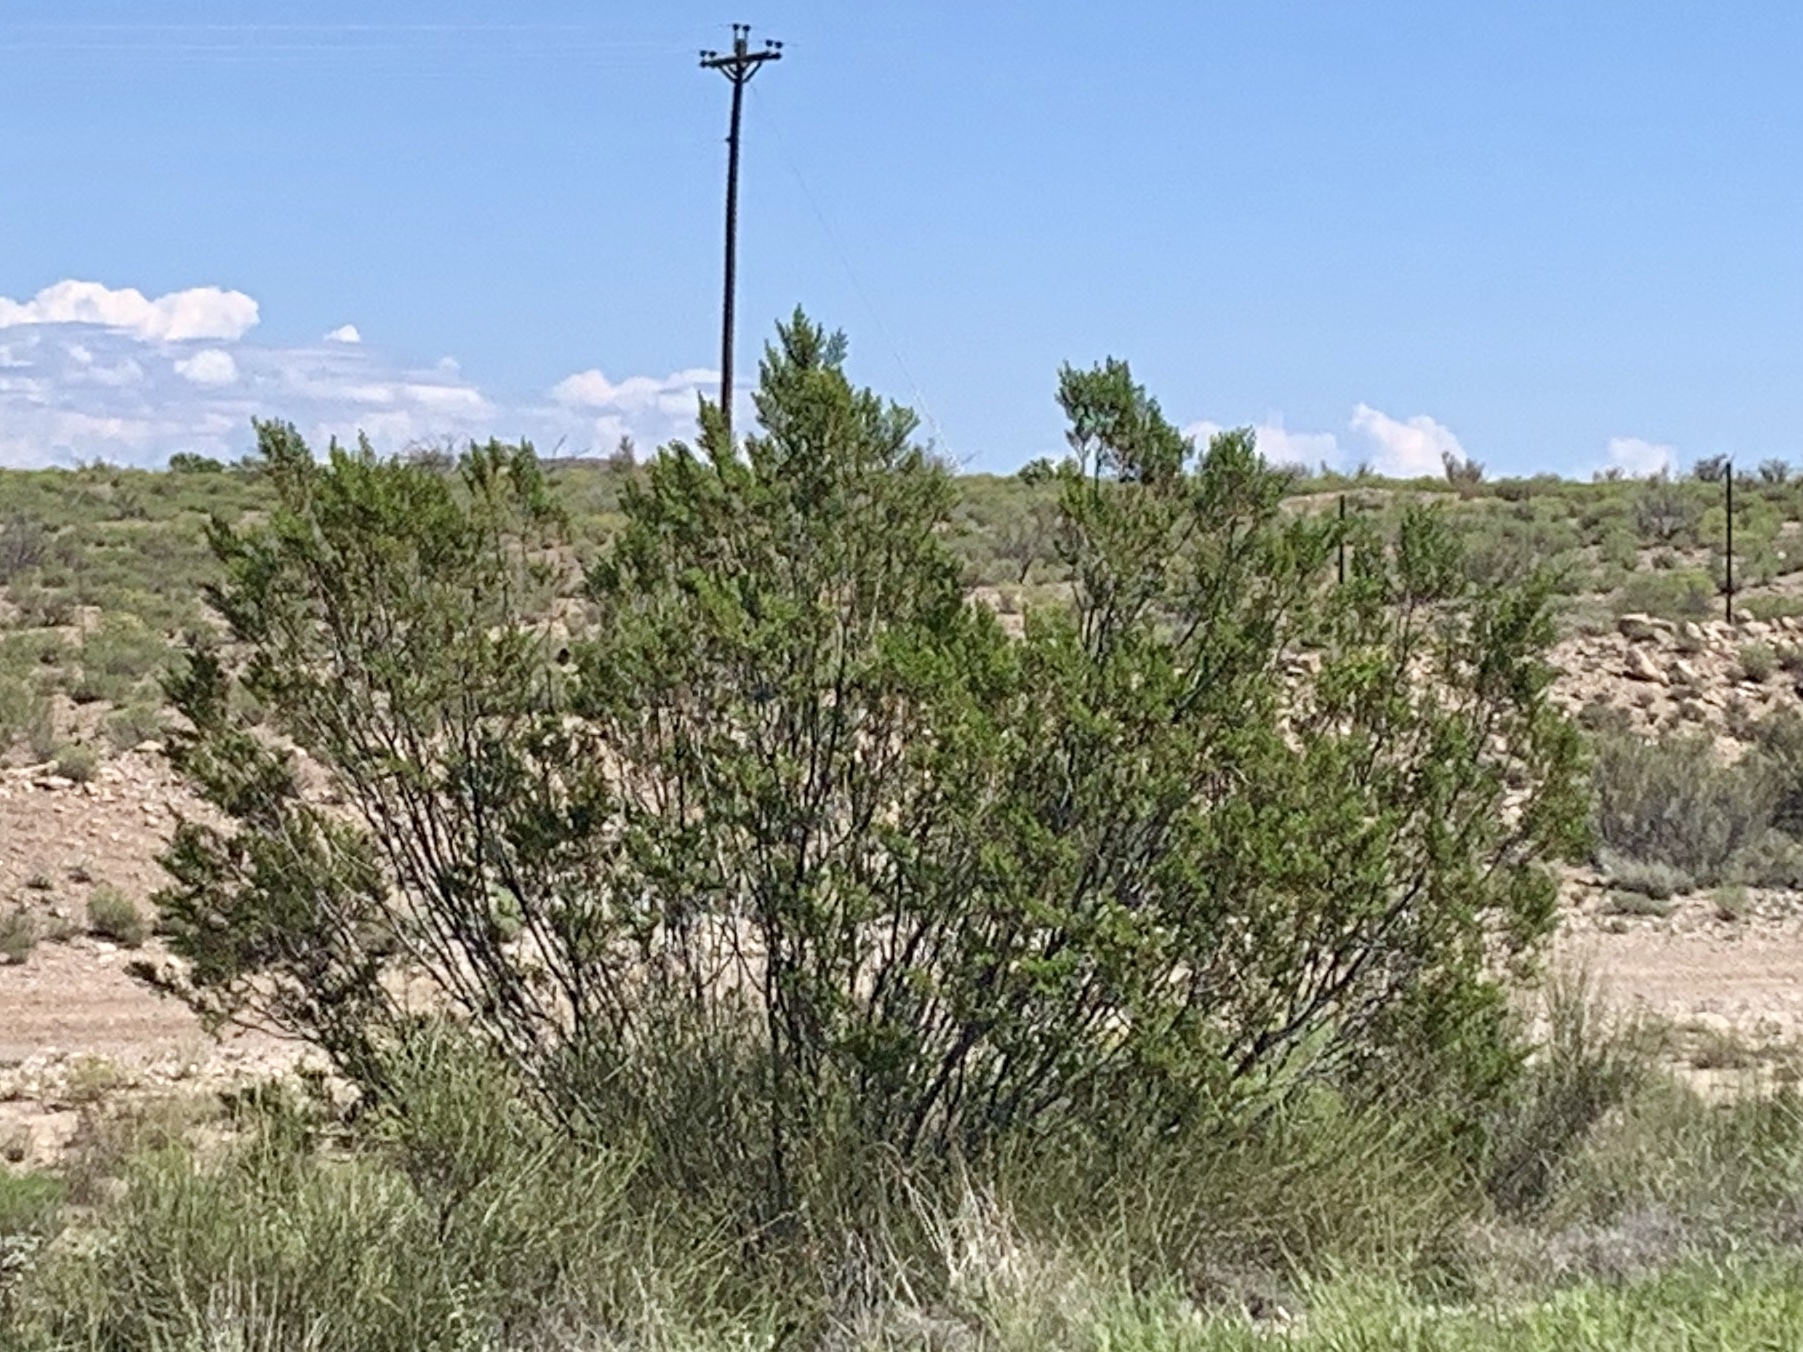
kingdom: Plantae
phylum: Tracheophyta
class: Magnoliopsida
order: Zygophyllales
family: Zygophyllaceae
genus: Larrea
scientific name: Larrea tridentata
